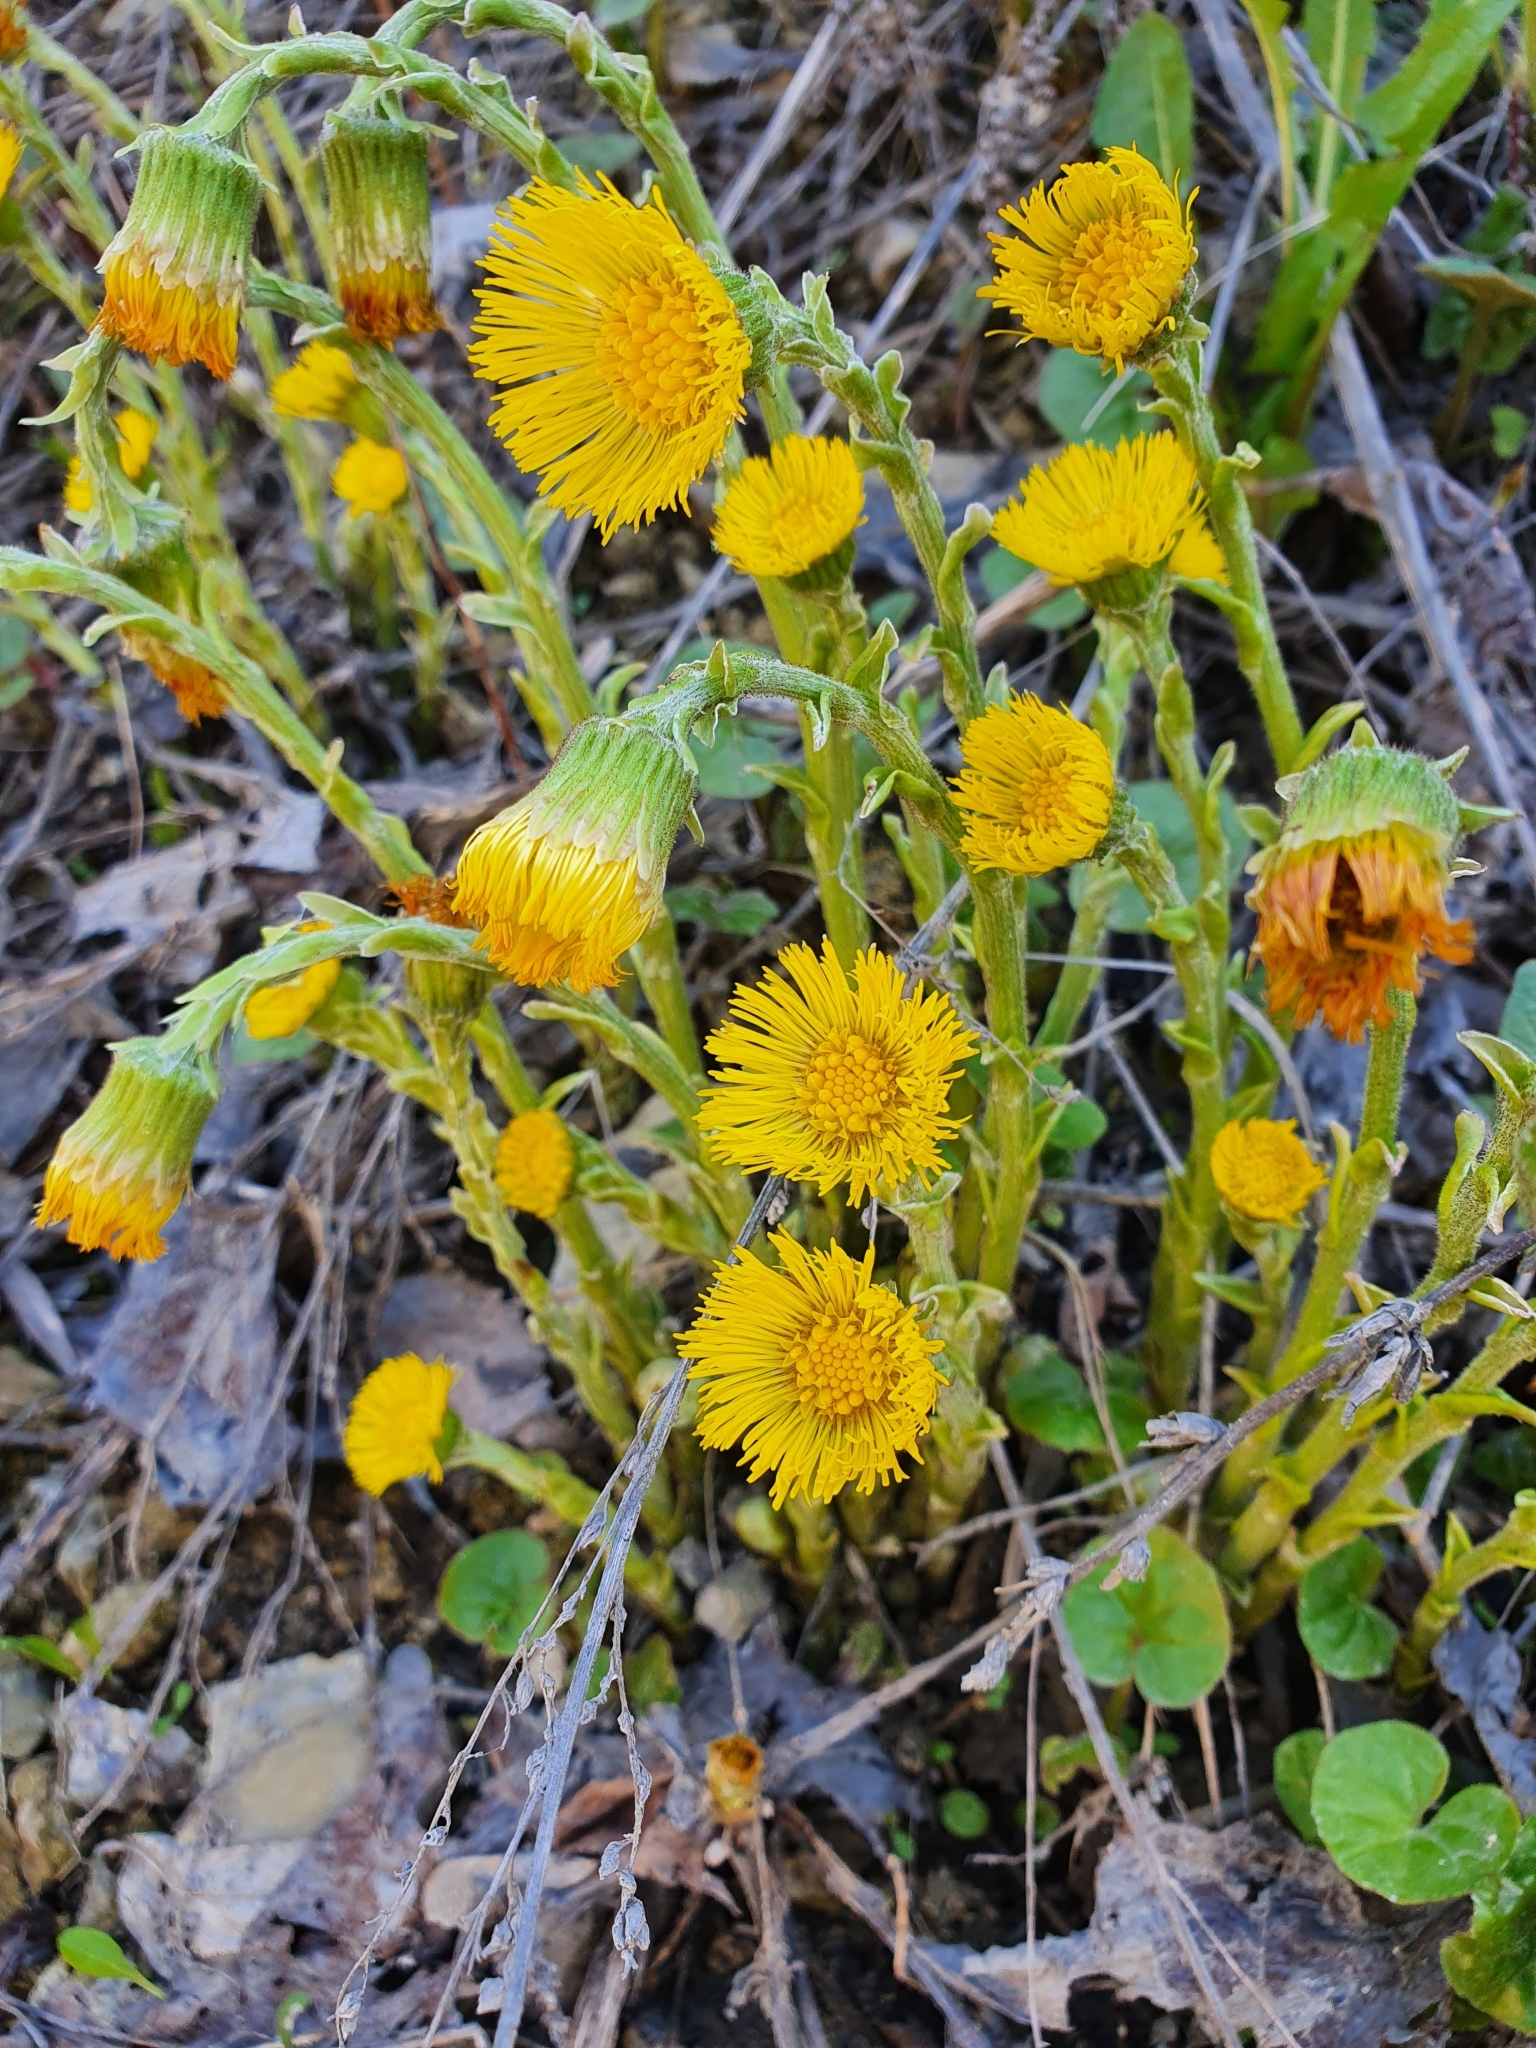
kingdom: Plantae
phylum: Tracheophyta
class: Magnoliopsida
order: Asterales
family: Asteraceae
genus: Tussilago
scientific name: Tussilago farfara
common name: Coltsfoot
